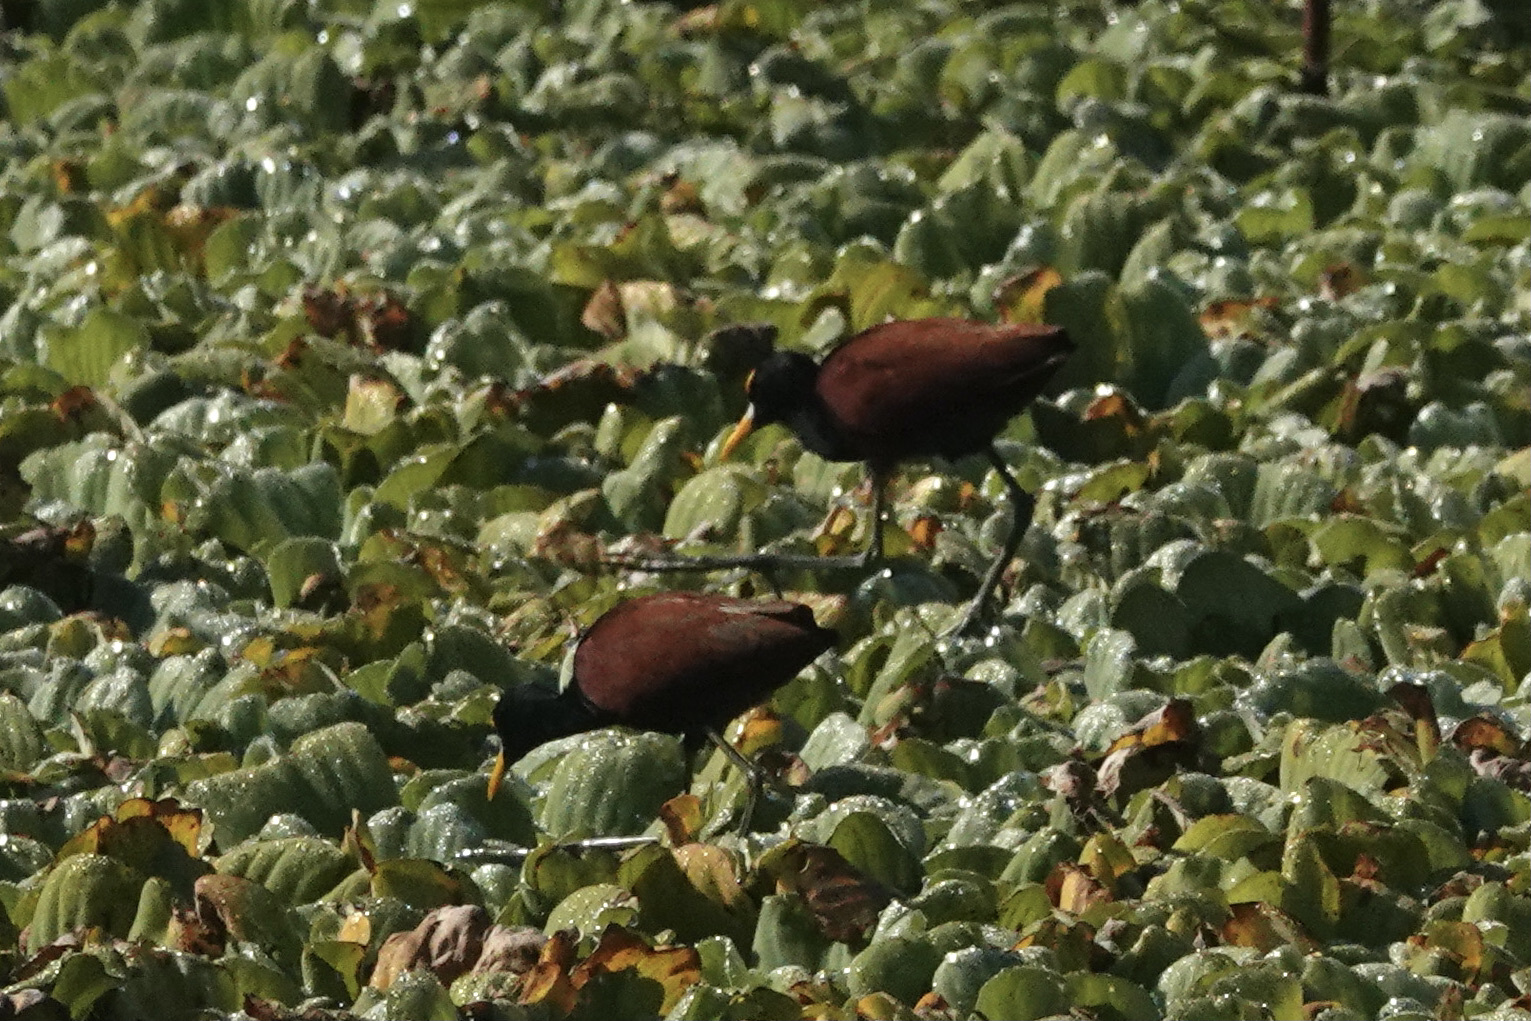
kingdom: Animalia
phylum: Chordata
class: Aves
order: Charadriiformes
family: Jacanidae
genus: Jacana
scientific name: Jacana spinosa
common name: Northern jacana
